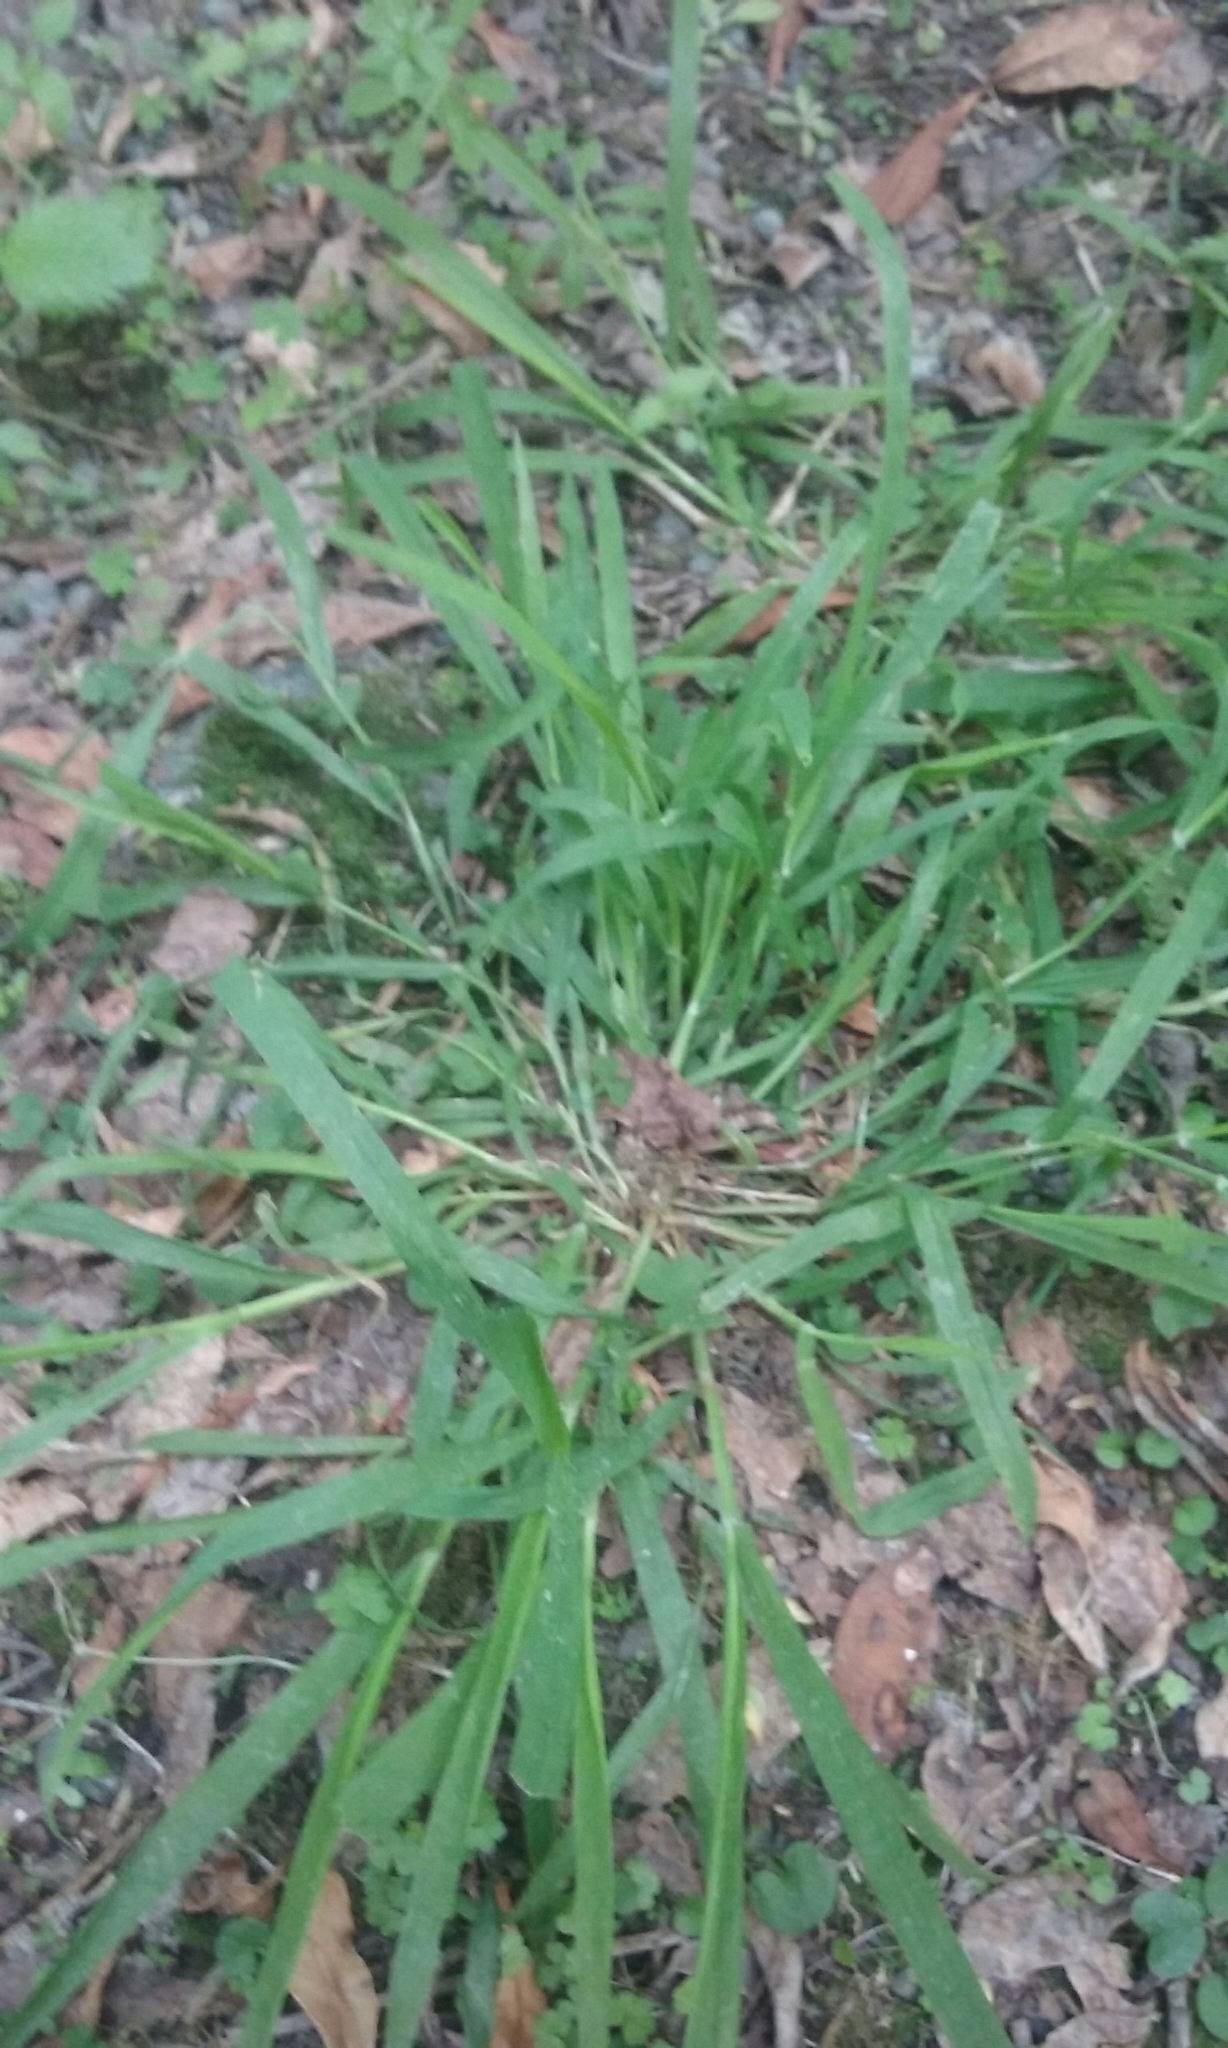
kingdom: Plantae
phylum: Tracheophyta
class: Liliopsida
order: Poales
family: Poaceae
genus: Ehrharta
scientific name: Ehrharta erecta
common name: Panic veldtgrass
